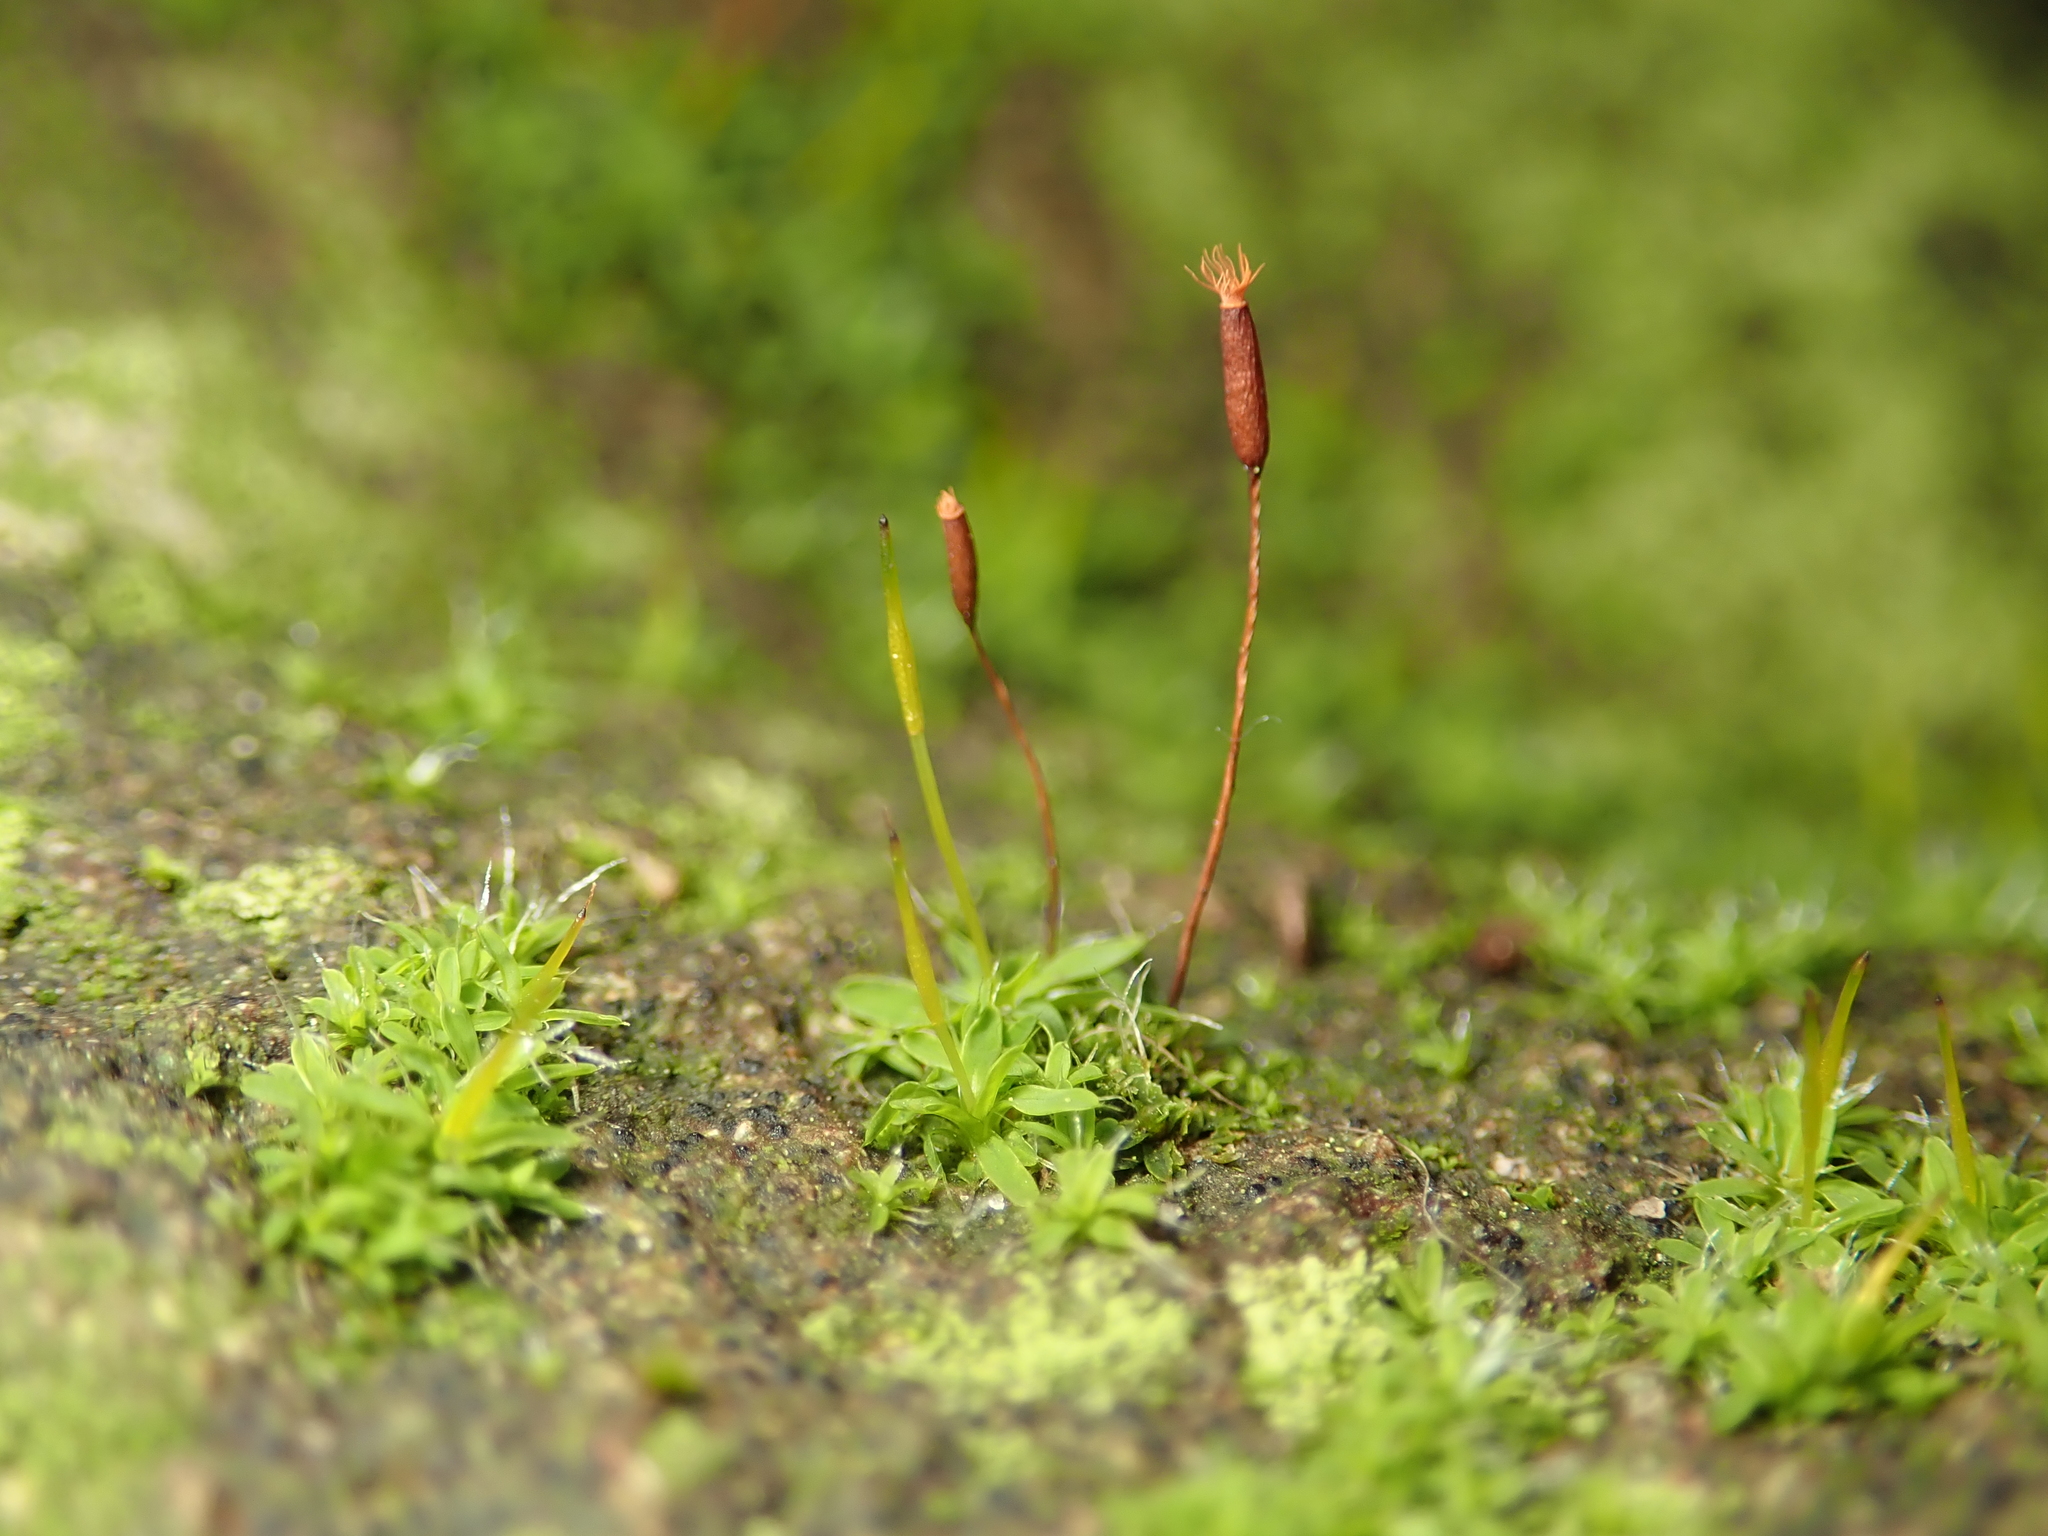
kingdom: Plantae
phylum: Bryophyta
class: Bryopsida
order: Pottiales
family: Pottiaceae
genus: Tortula
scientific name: Tortula muralis
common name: Wall screw-moss
